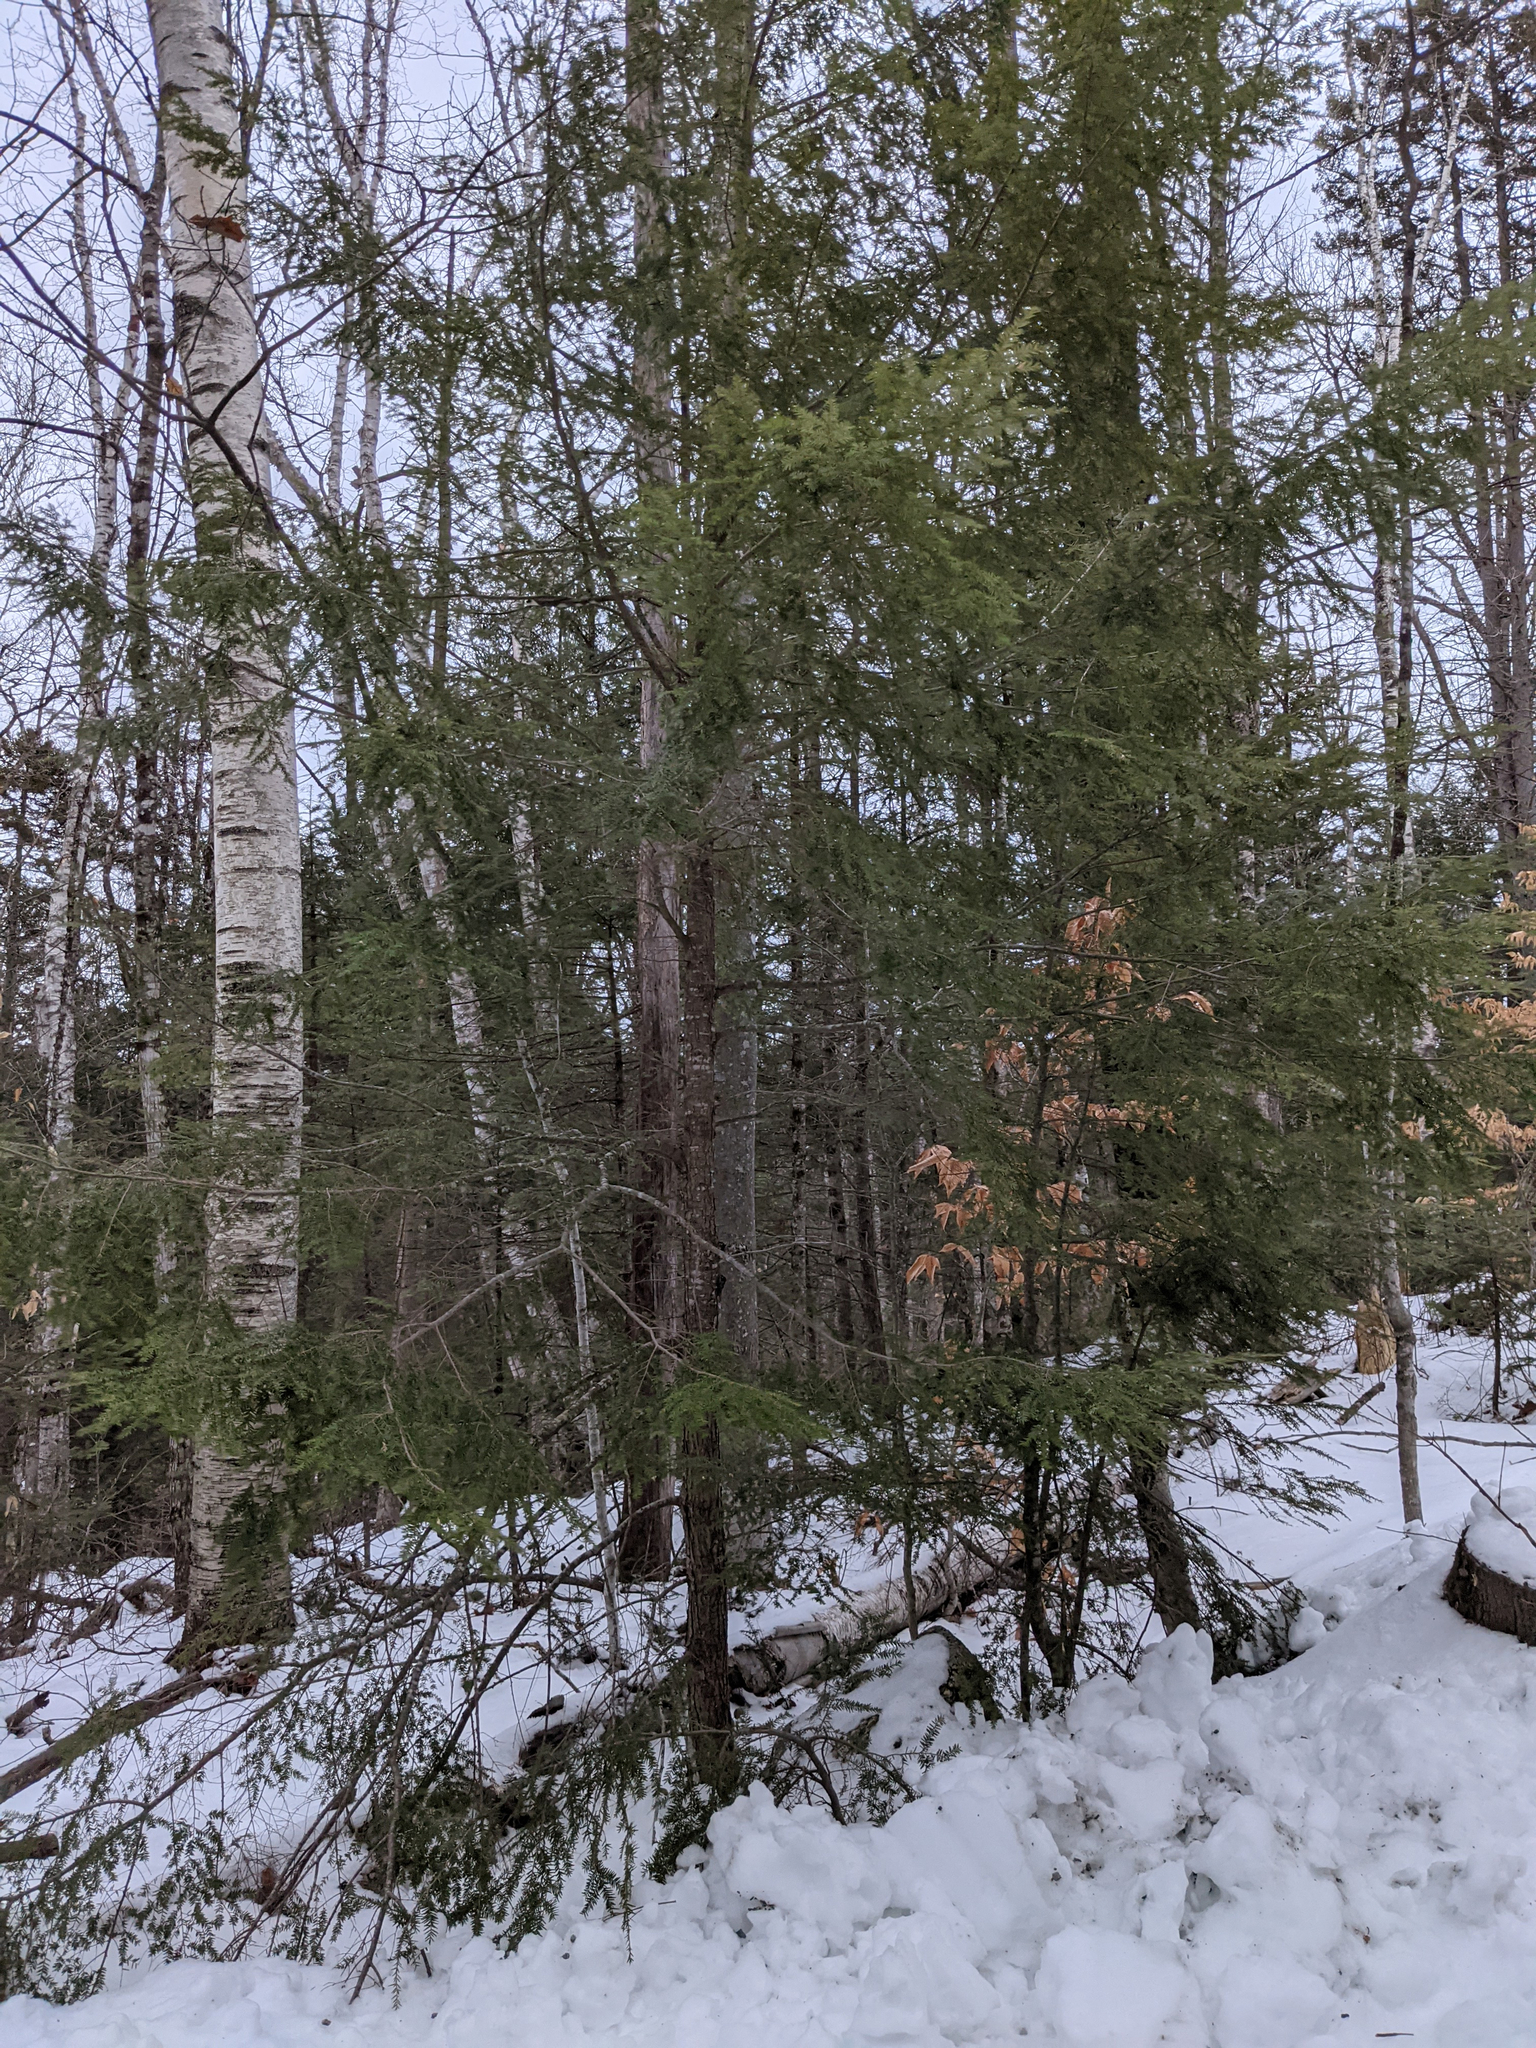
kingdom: Plantae
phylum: Tracheophyta
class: Pinopsida
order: Pinales
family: Pinaceae
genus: Tsuga
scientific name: Tsuga canadensis
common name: Eastern hemlock
